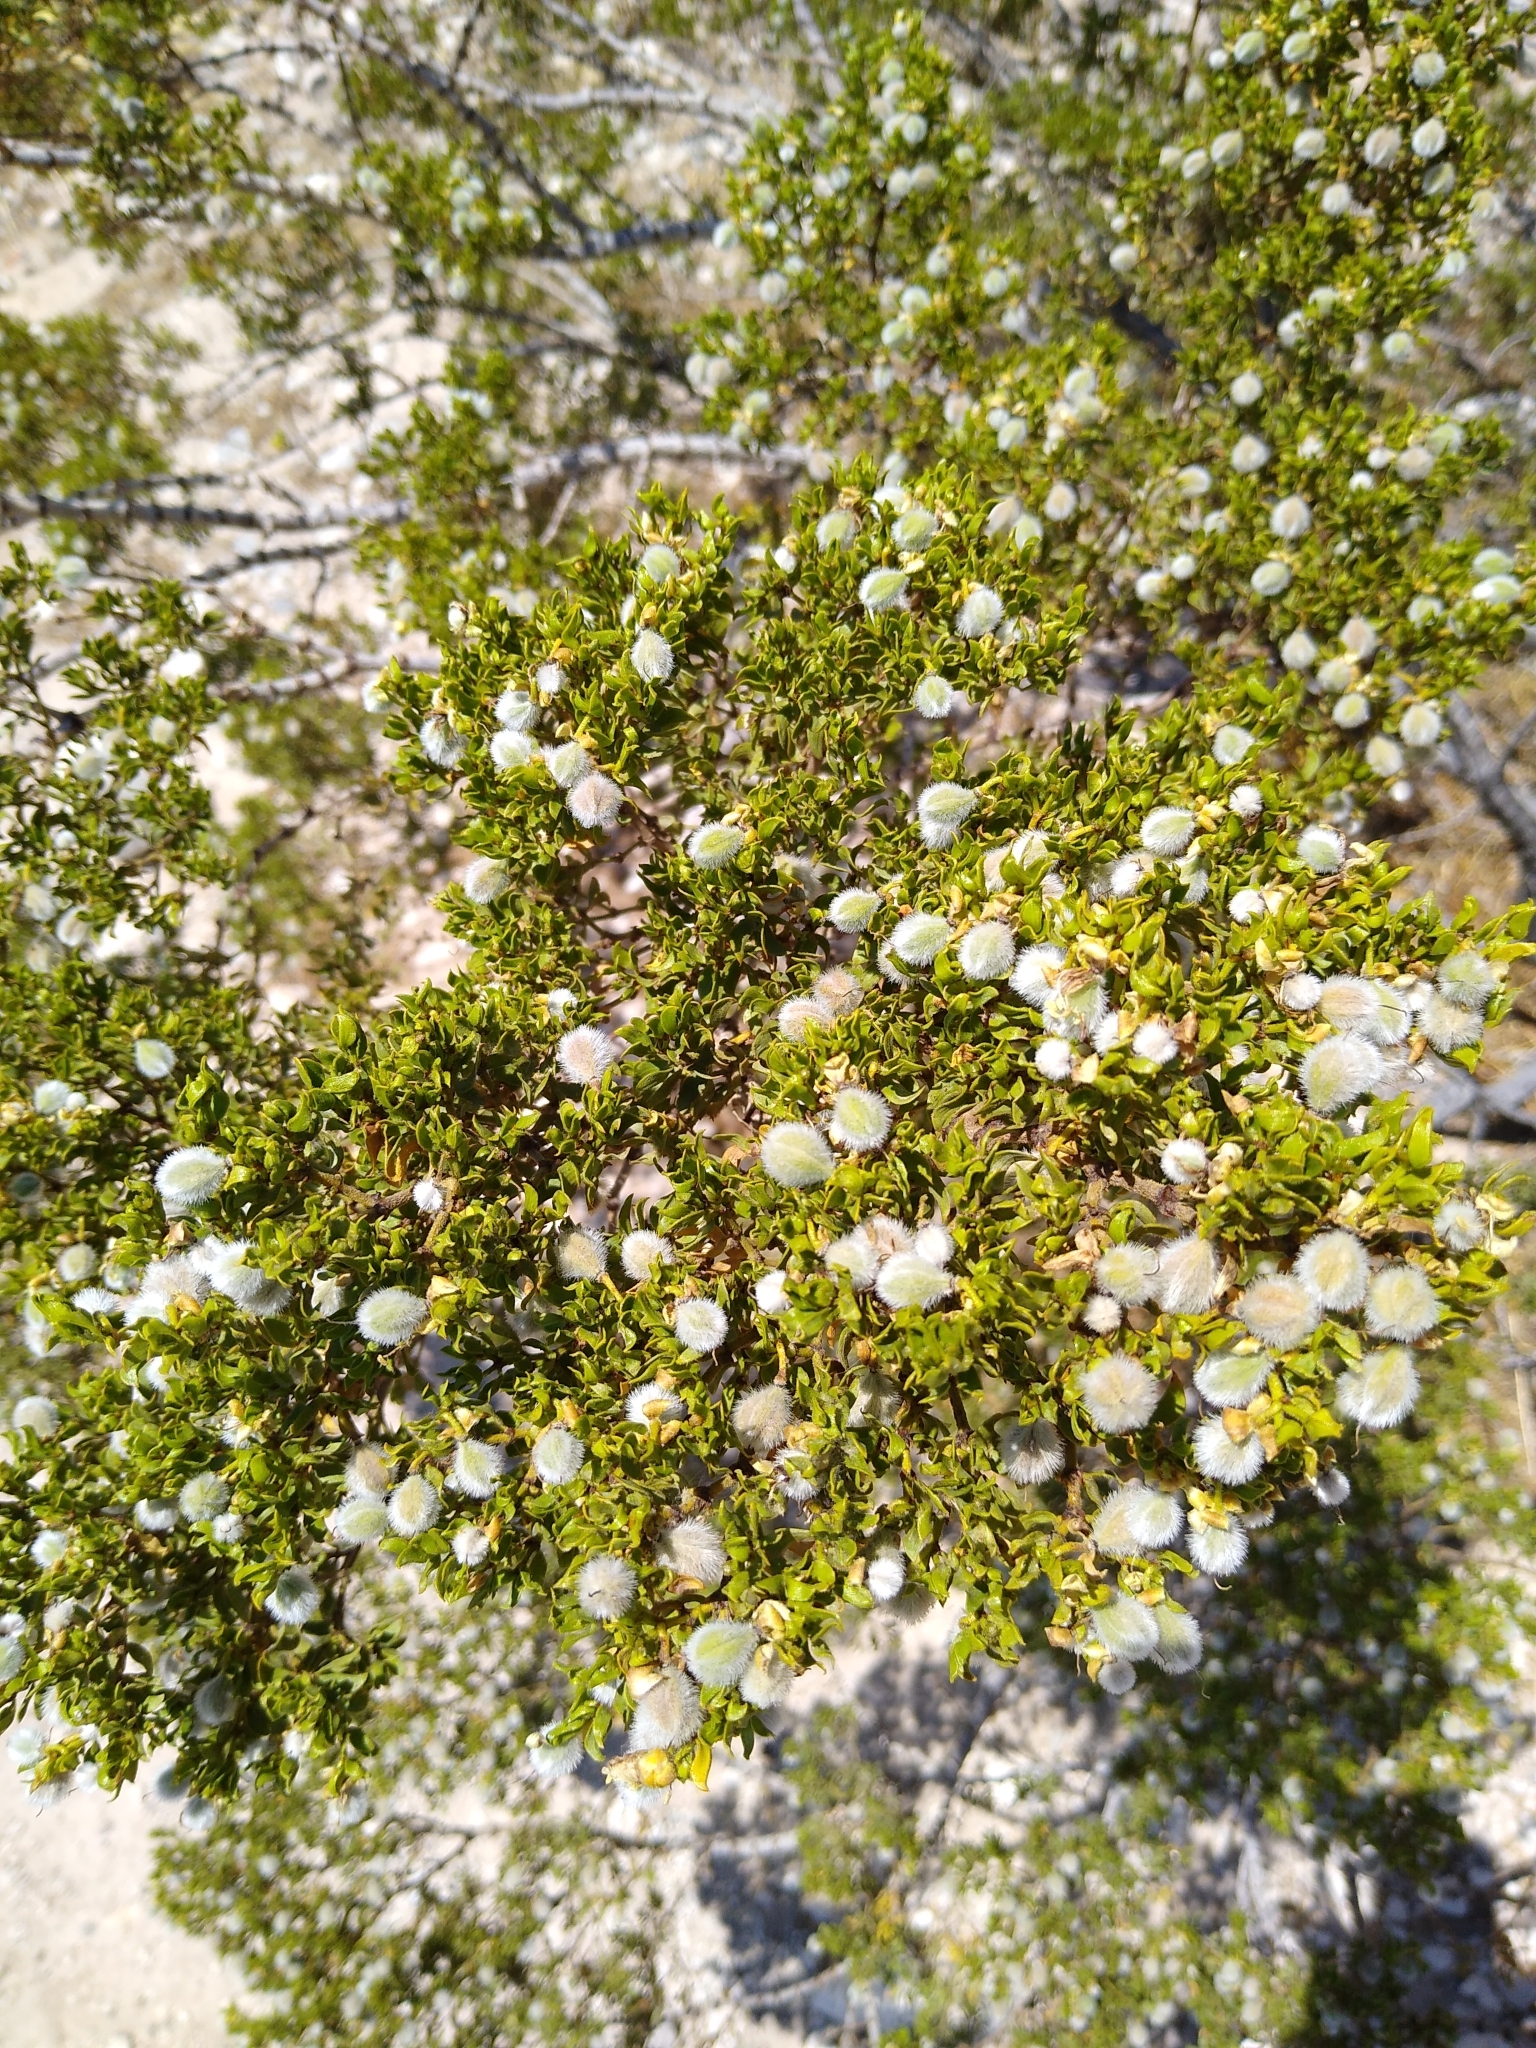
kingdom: Plantae
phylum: Tracheophyta
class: Magnoliopsida
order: Zygophyllales
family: Zygophyllaceae
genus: Larrea
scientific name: Larrea tridentata
